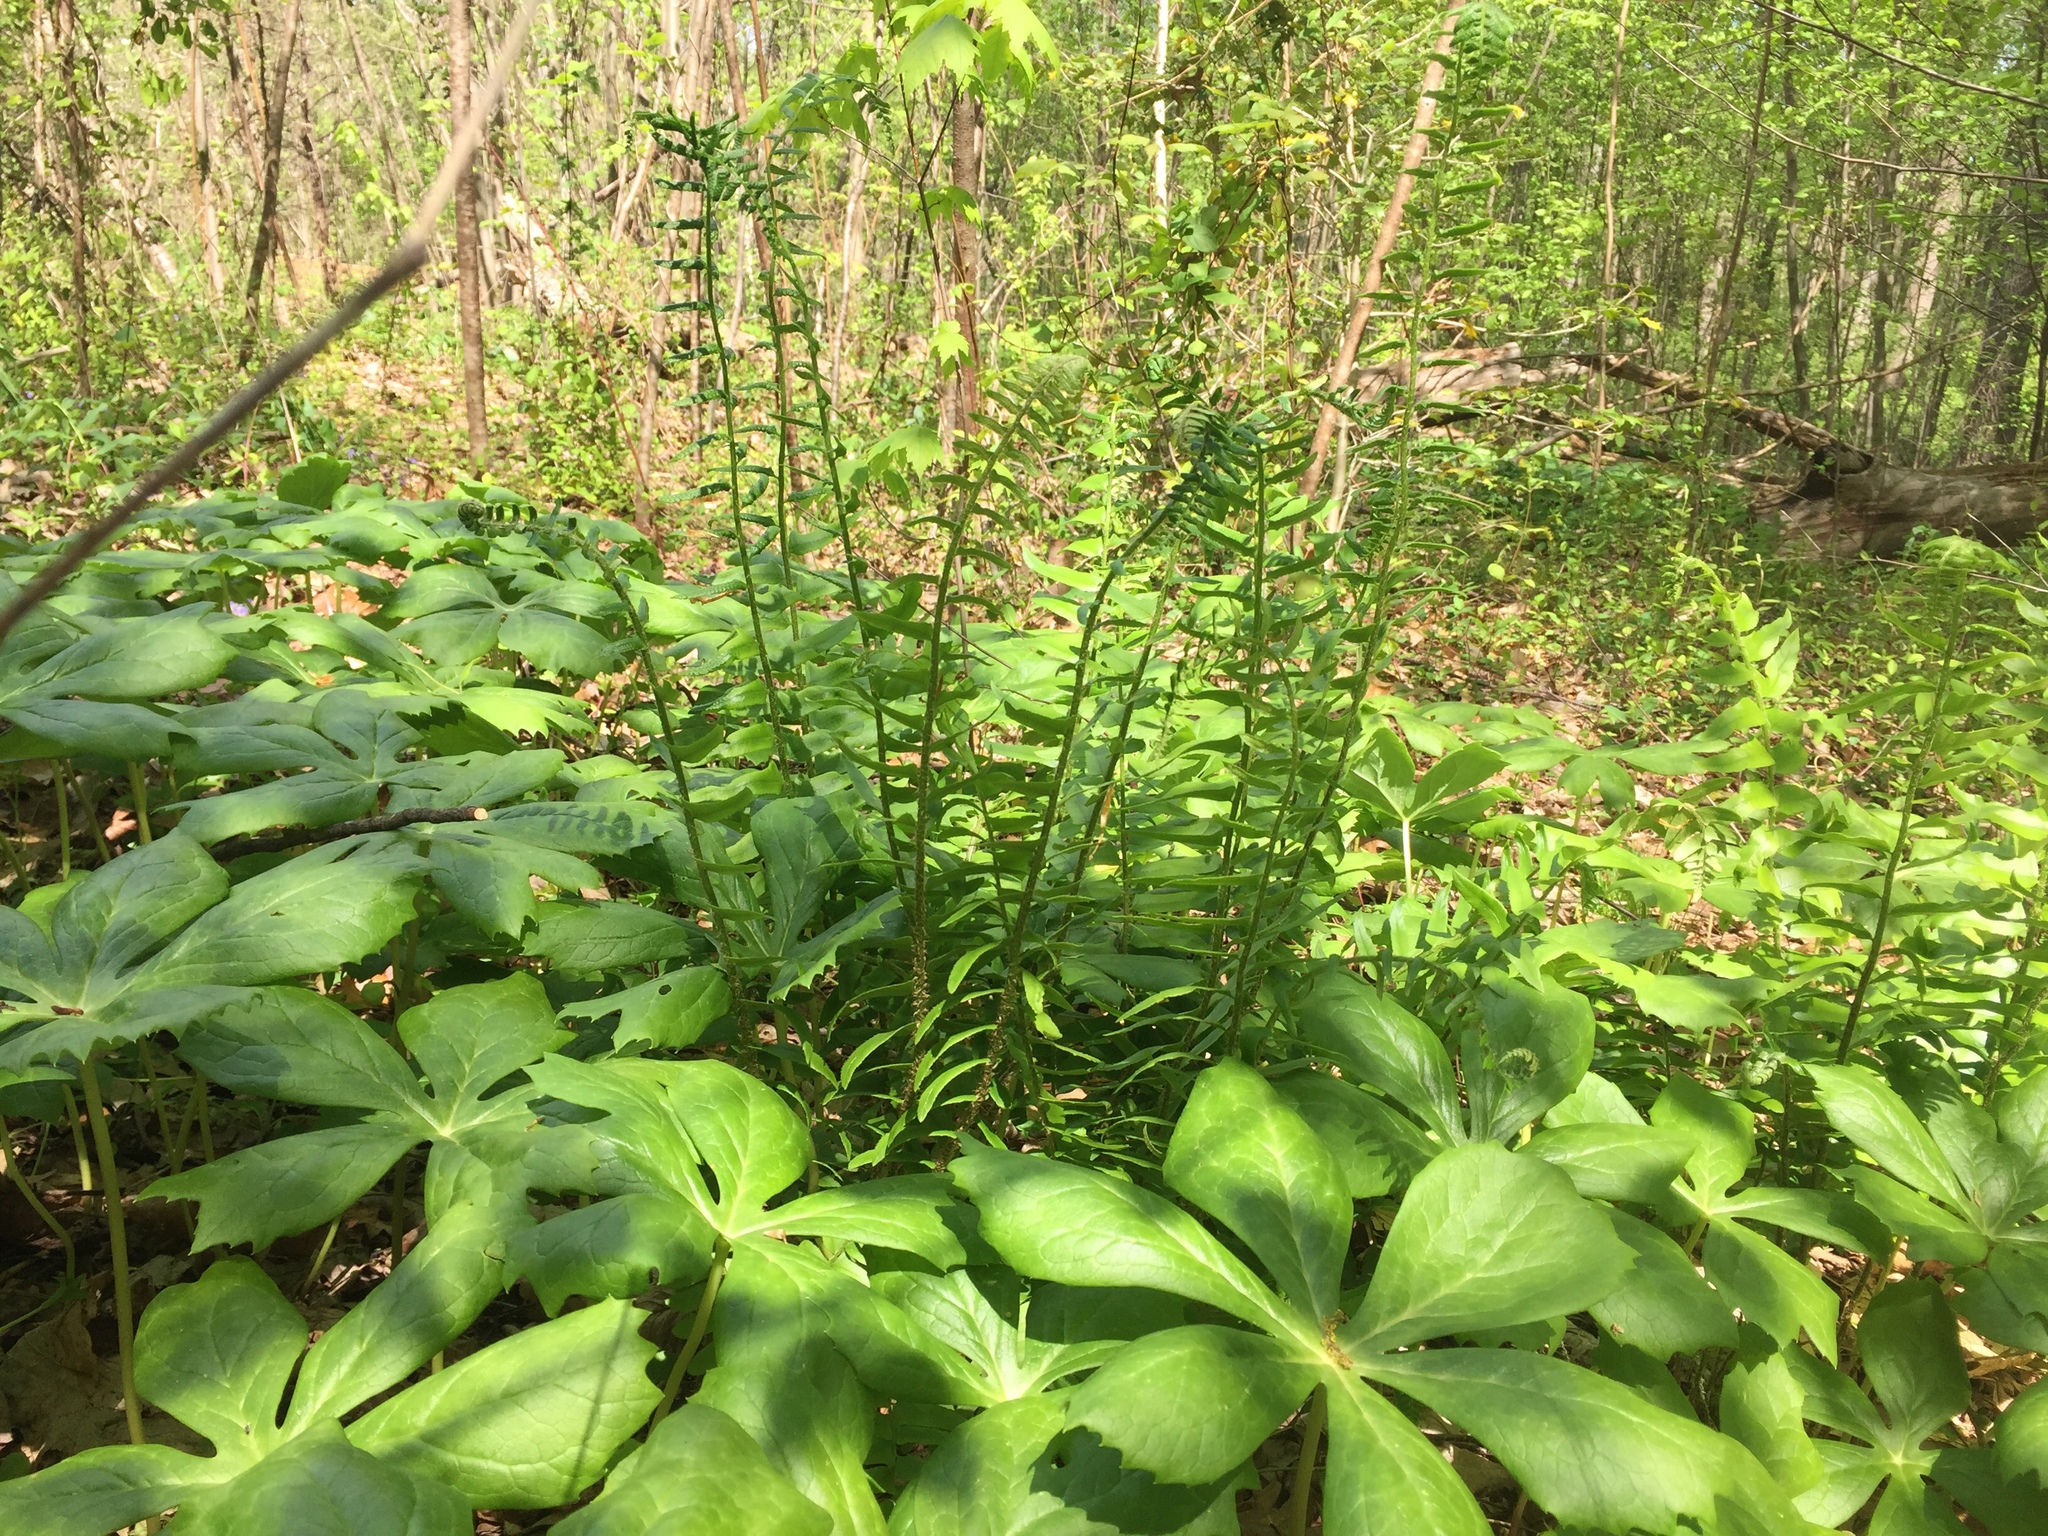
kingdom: Plantae
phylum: Tracheophyta
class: Polypodiopsida
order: Polypodiales
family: Dryopteridaceae
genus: Polystichum
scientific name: Polystichum acrostichoides
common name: Christmas fern
